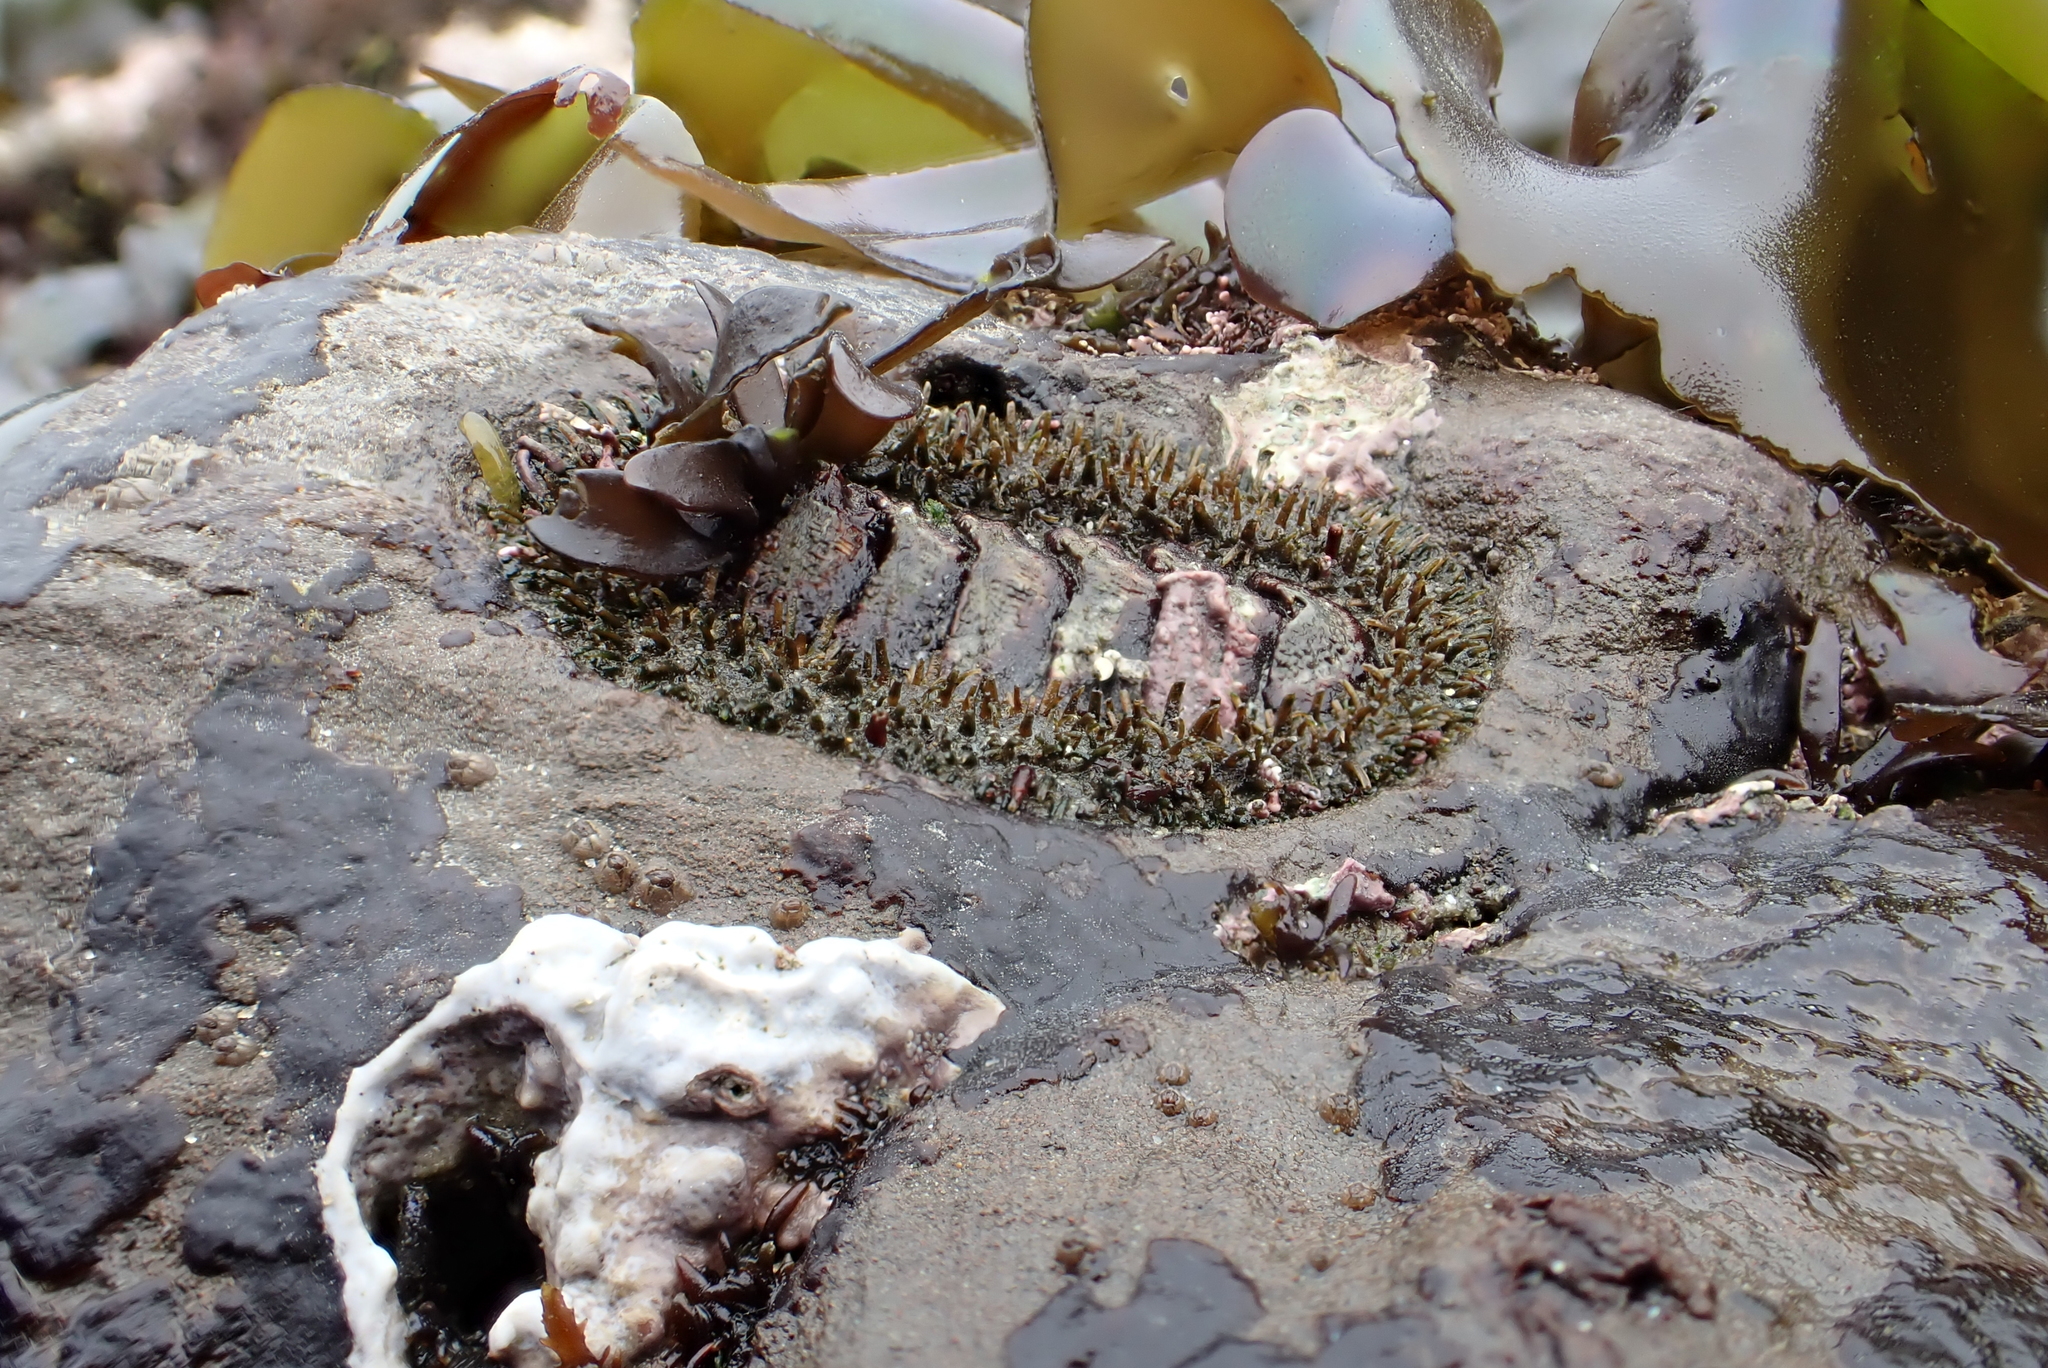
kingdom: Animalia
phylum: Mollusca
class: Polyplacophora
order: Chitonida
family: Mopaliidae
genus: Mopalia
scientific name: Mopalia muscosa
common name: Mossy chiton
